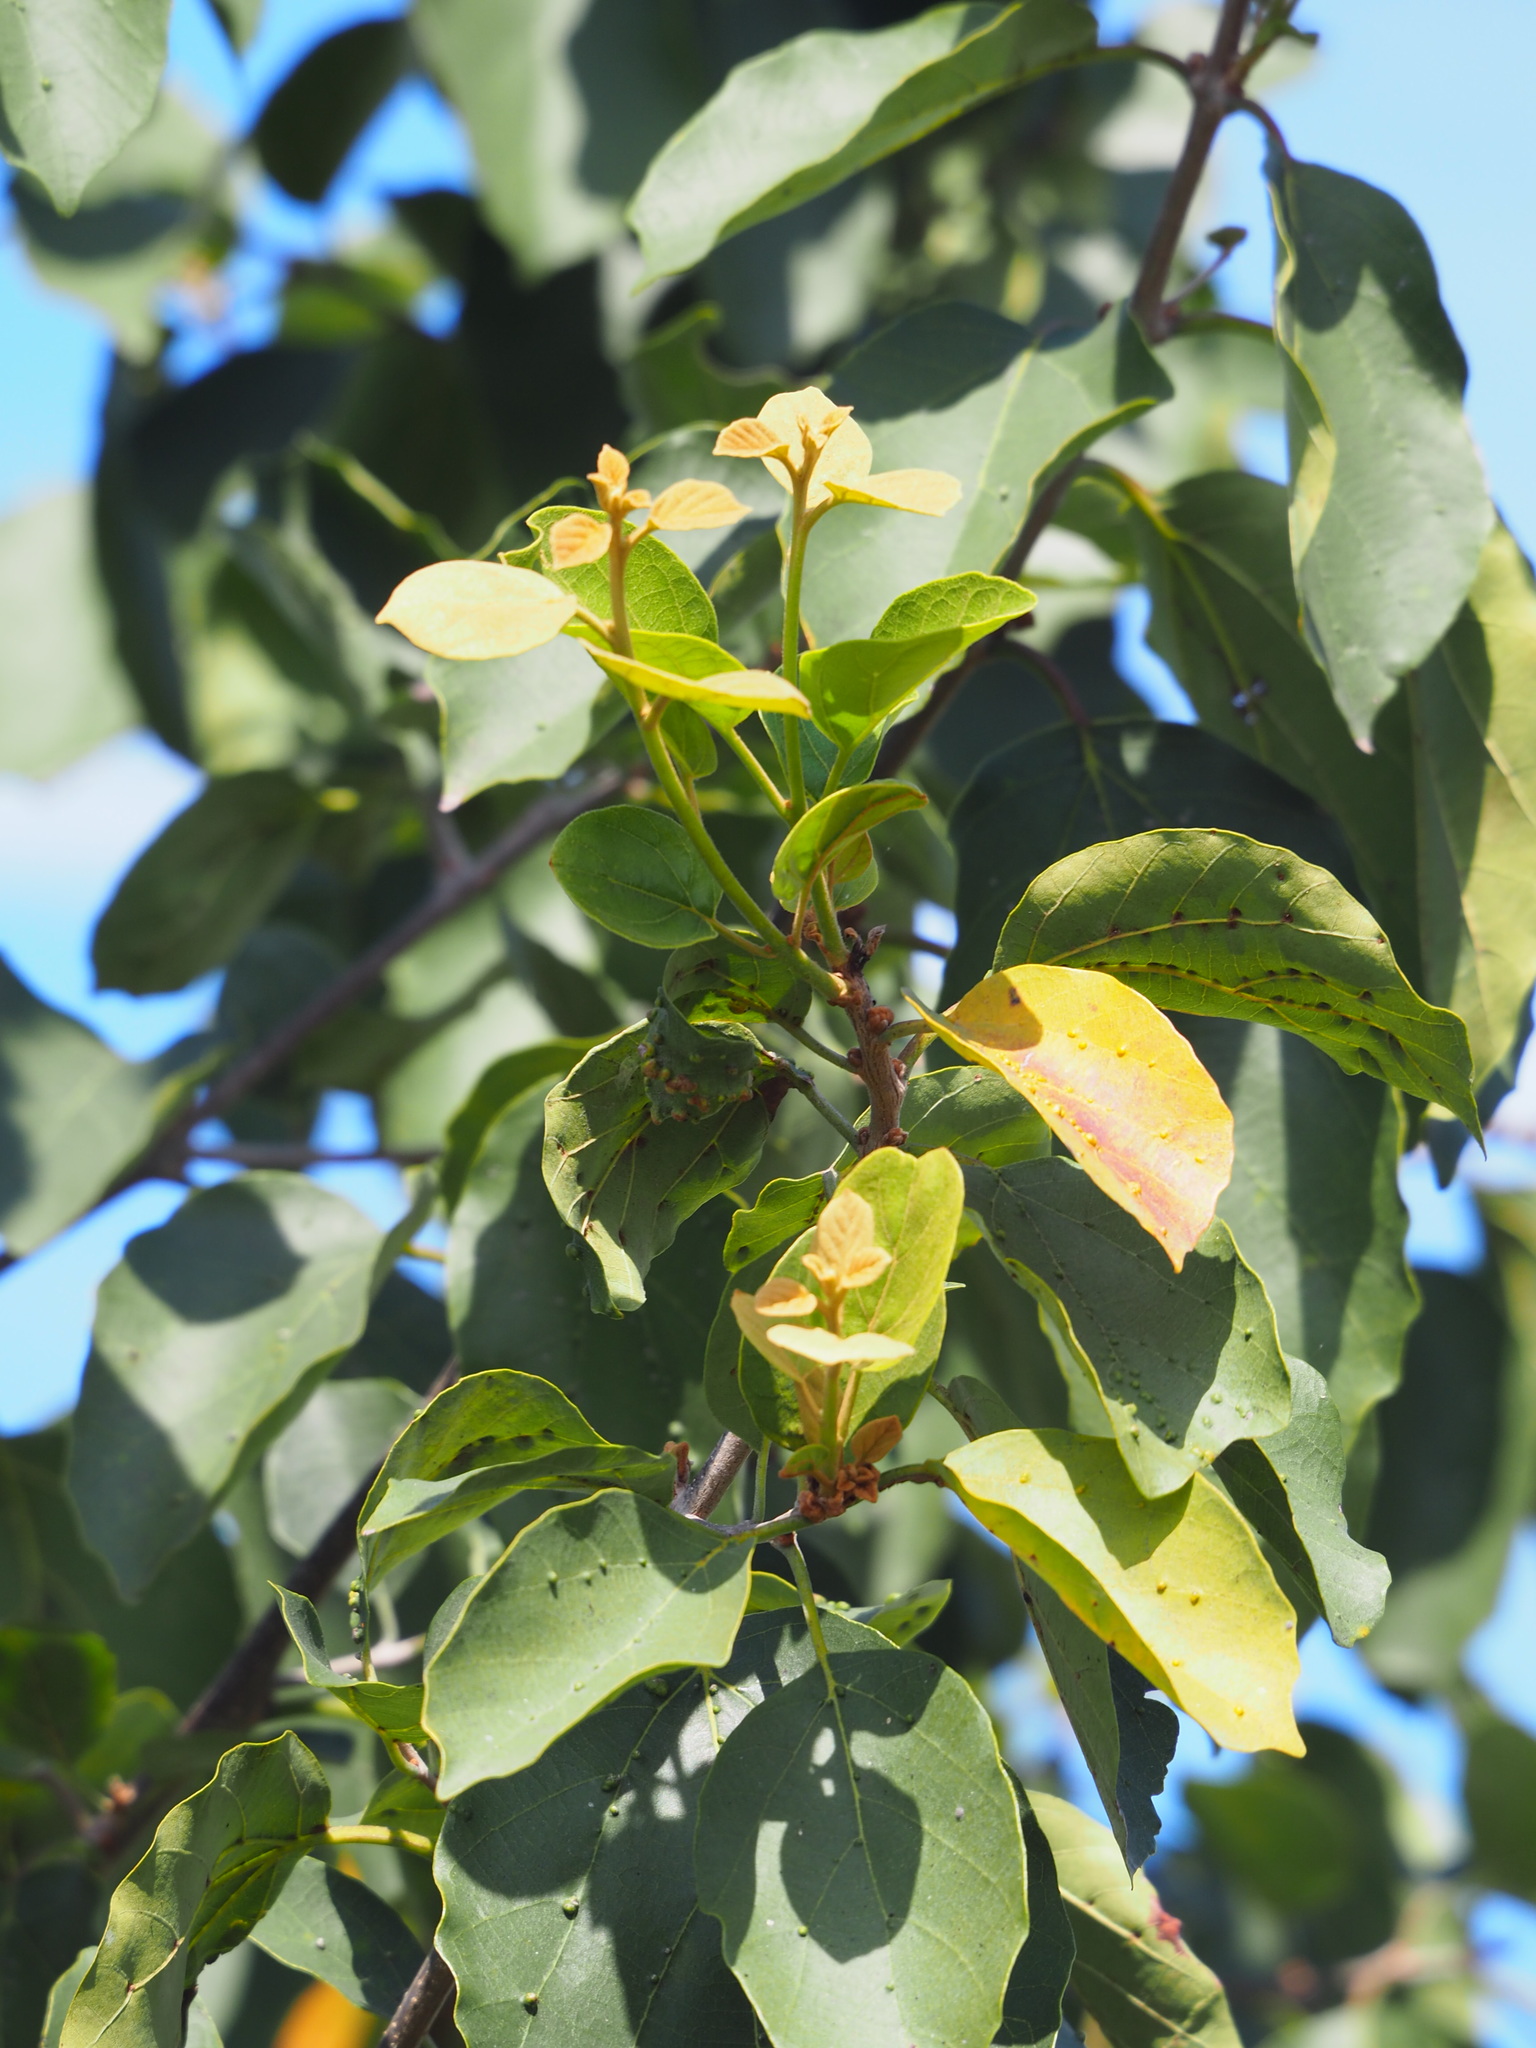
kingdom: Plantae
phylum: Tracheophyta
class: Magnoliopsida
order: Boraginales
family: Cordiaceae
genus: Cordia
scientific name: Cordia dichotoma
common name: Fragrant manjack
